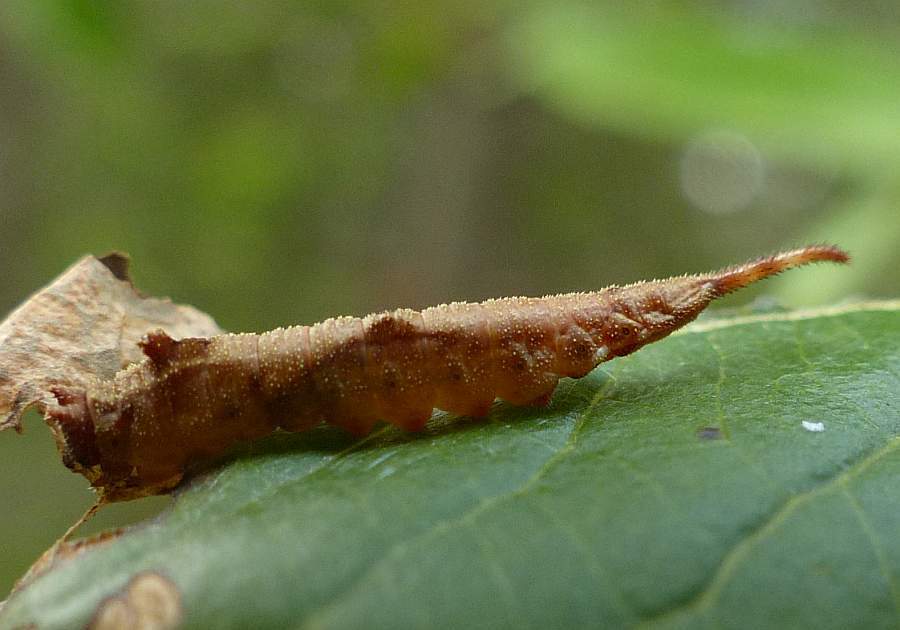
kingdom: Animalia
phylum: Arthropoda
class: Insecta
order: Lepidoptera
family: Drepanidae
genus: Oreta
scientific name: Oreta rosea
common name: Rose hooktip
